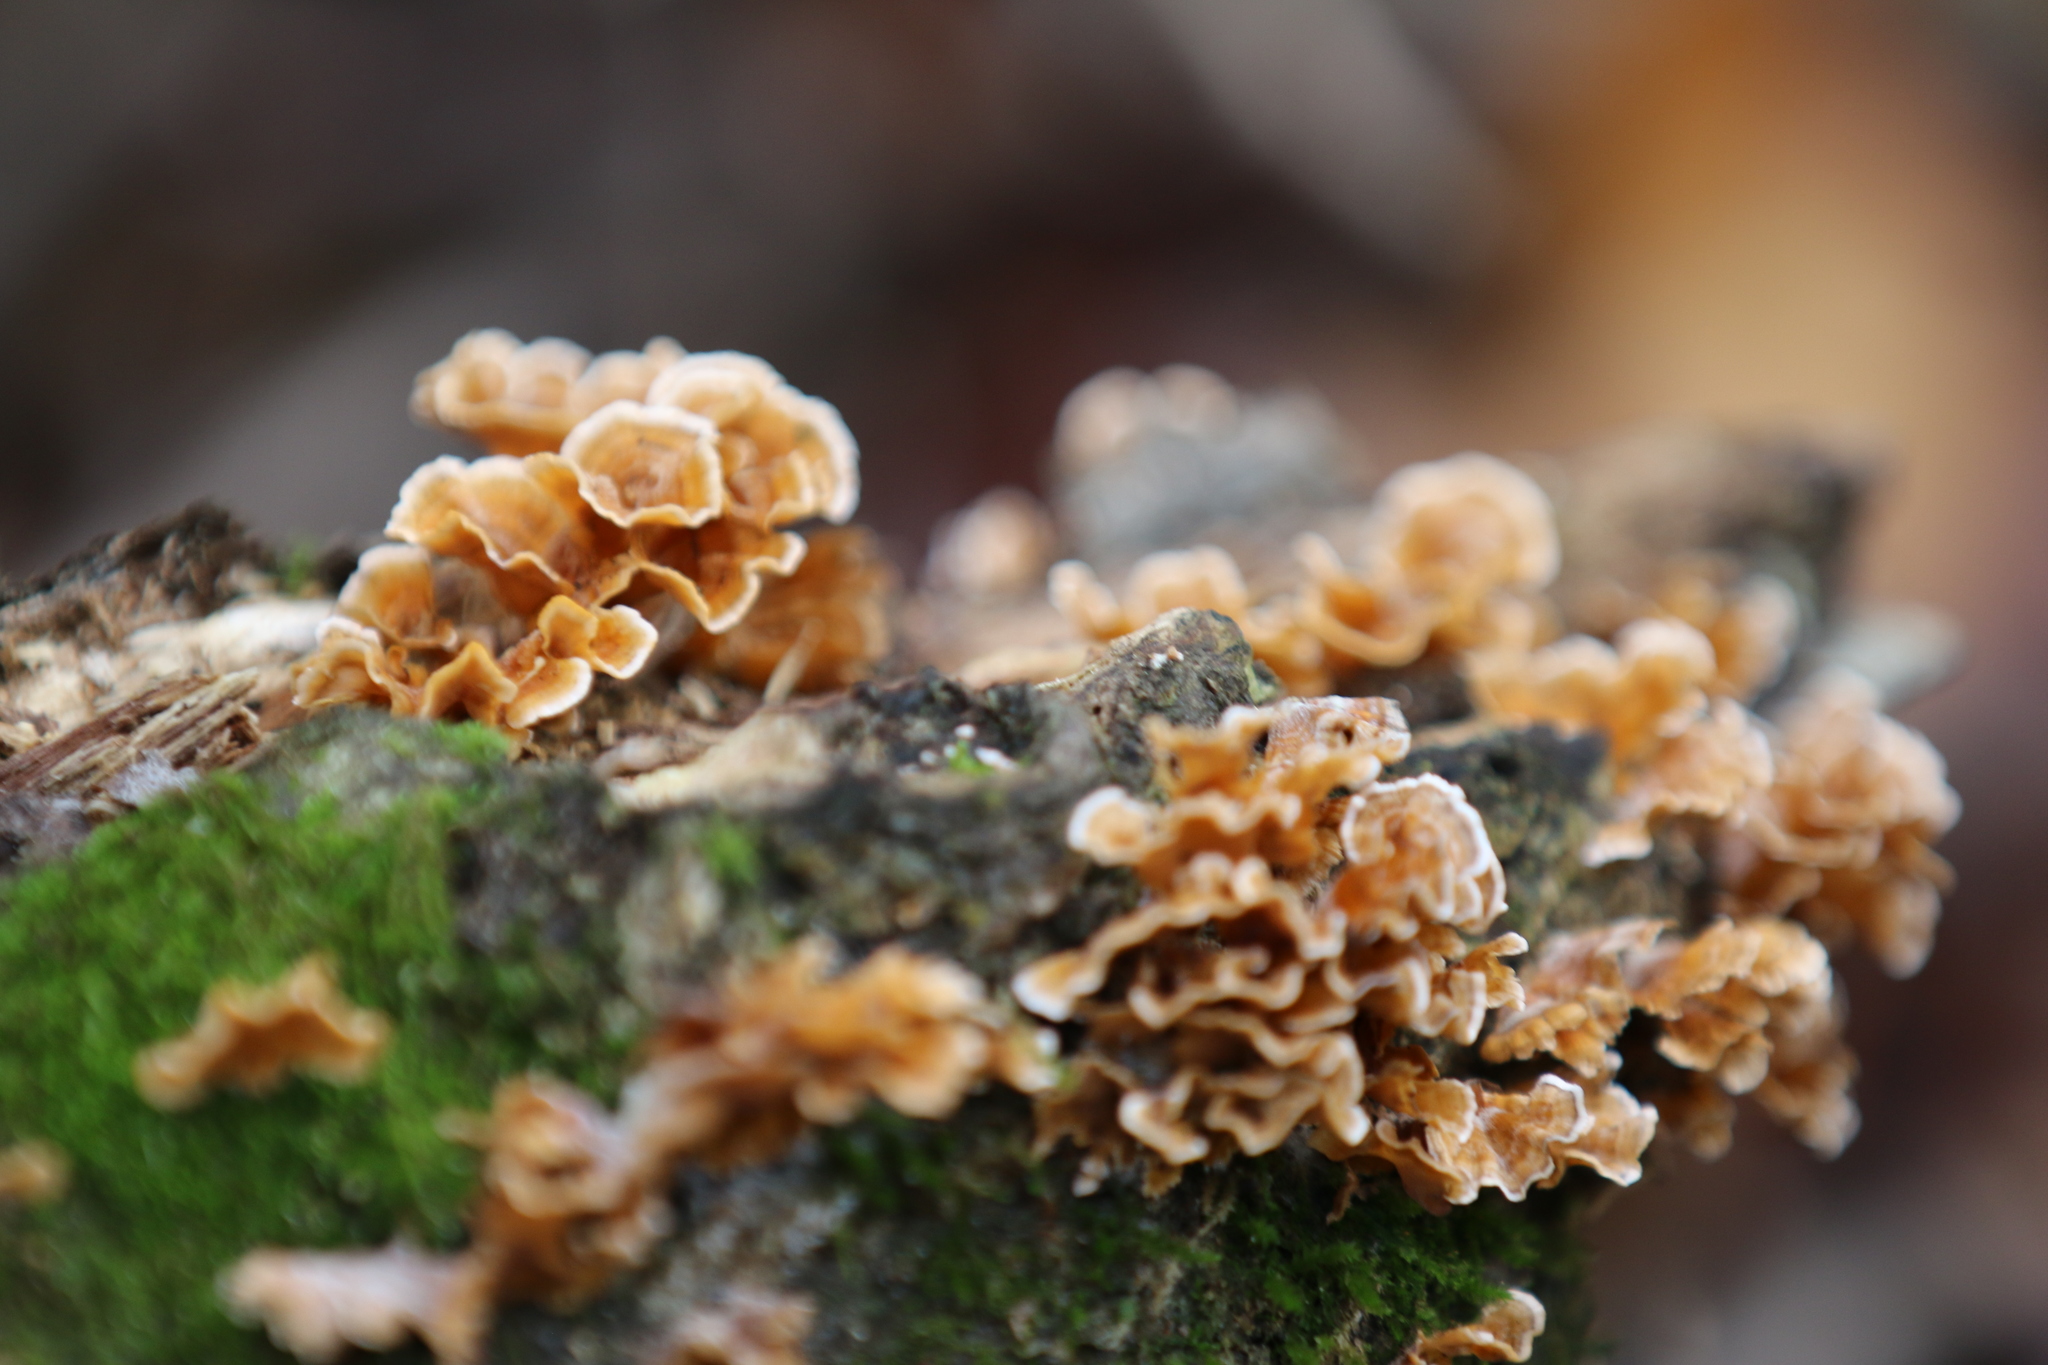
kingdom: Fungi
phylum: Basidiomycota
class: Agaricomycetes
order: Russulales
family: Stereaceae
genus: Stereum
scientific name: Stereum complicatum
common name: Crowded parchment
